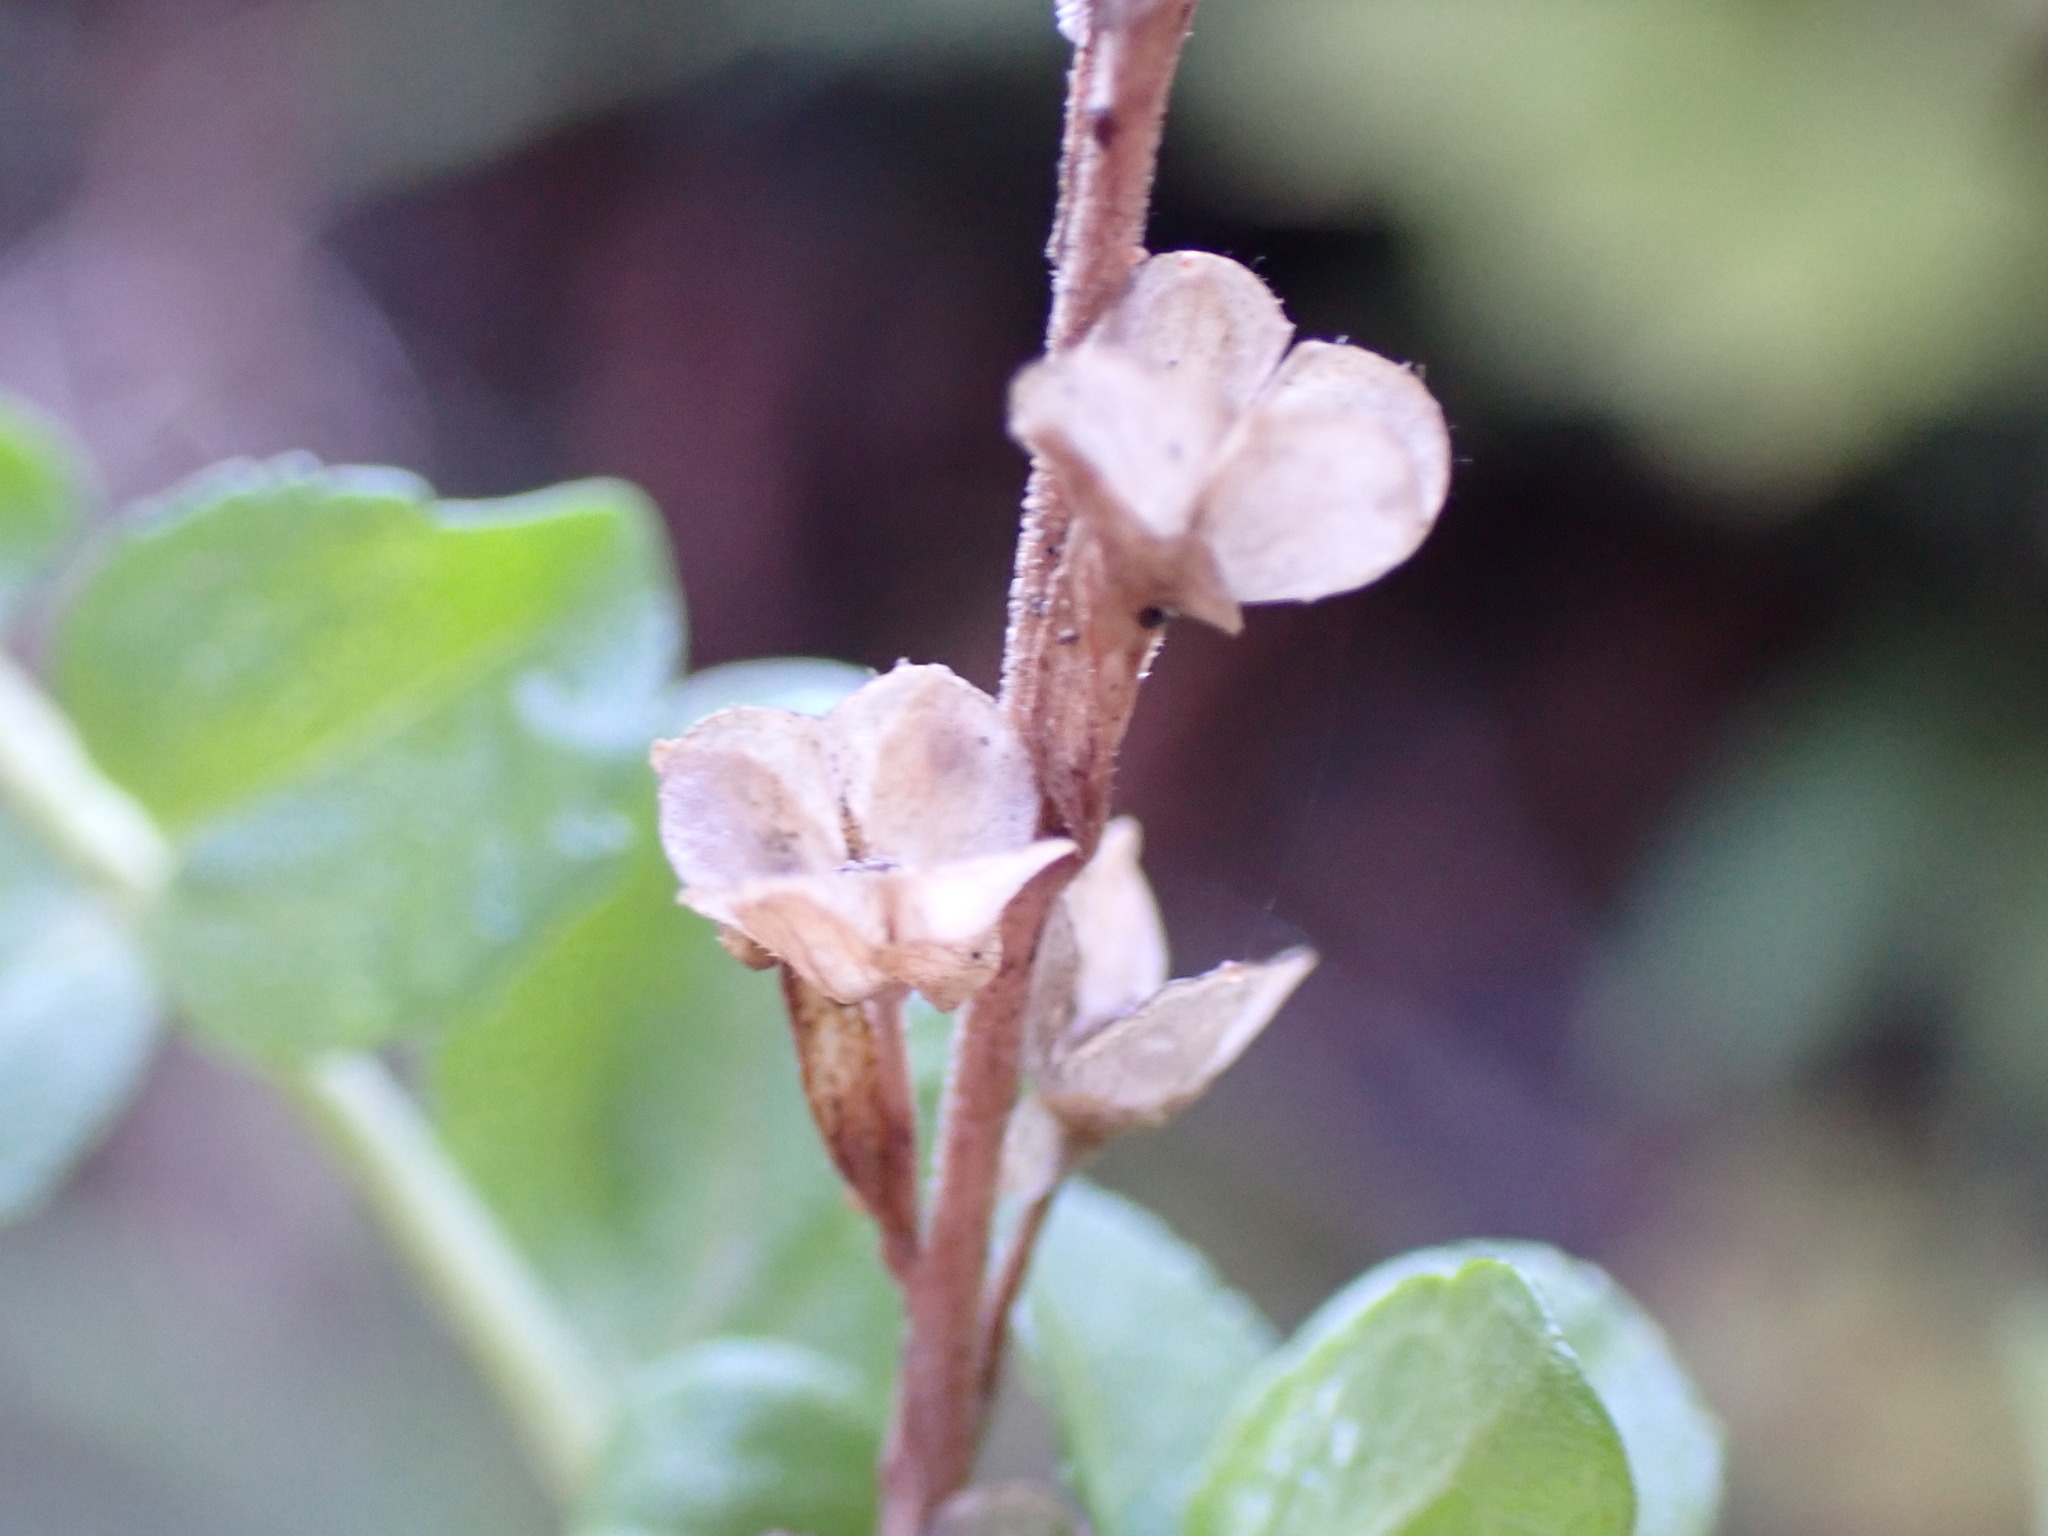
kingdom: Plantae
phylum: Tracheophyta
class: Magnoliopsida
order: Lamiales
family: Plantaginaceae
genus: Veronica
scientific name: Veronica serpyllifolia
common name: Thyme-leaved speedwell
